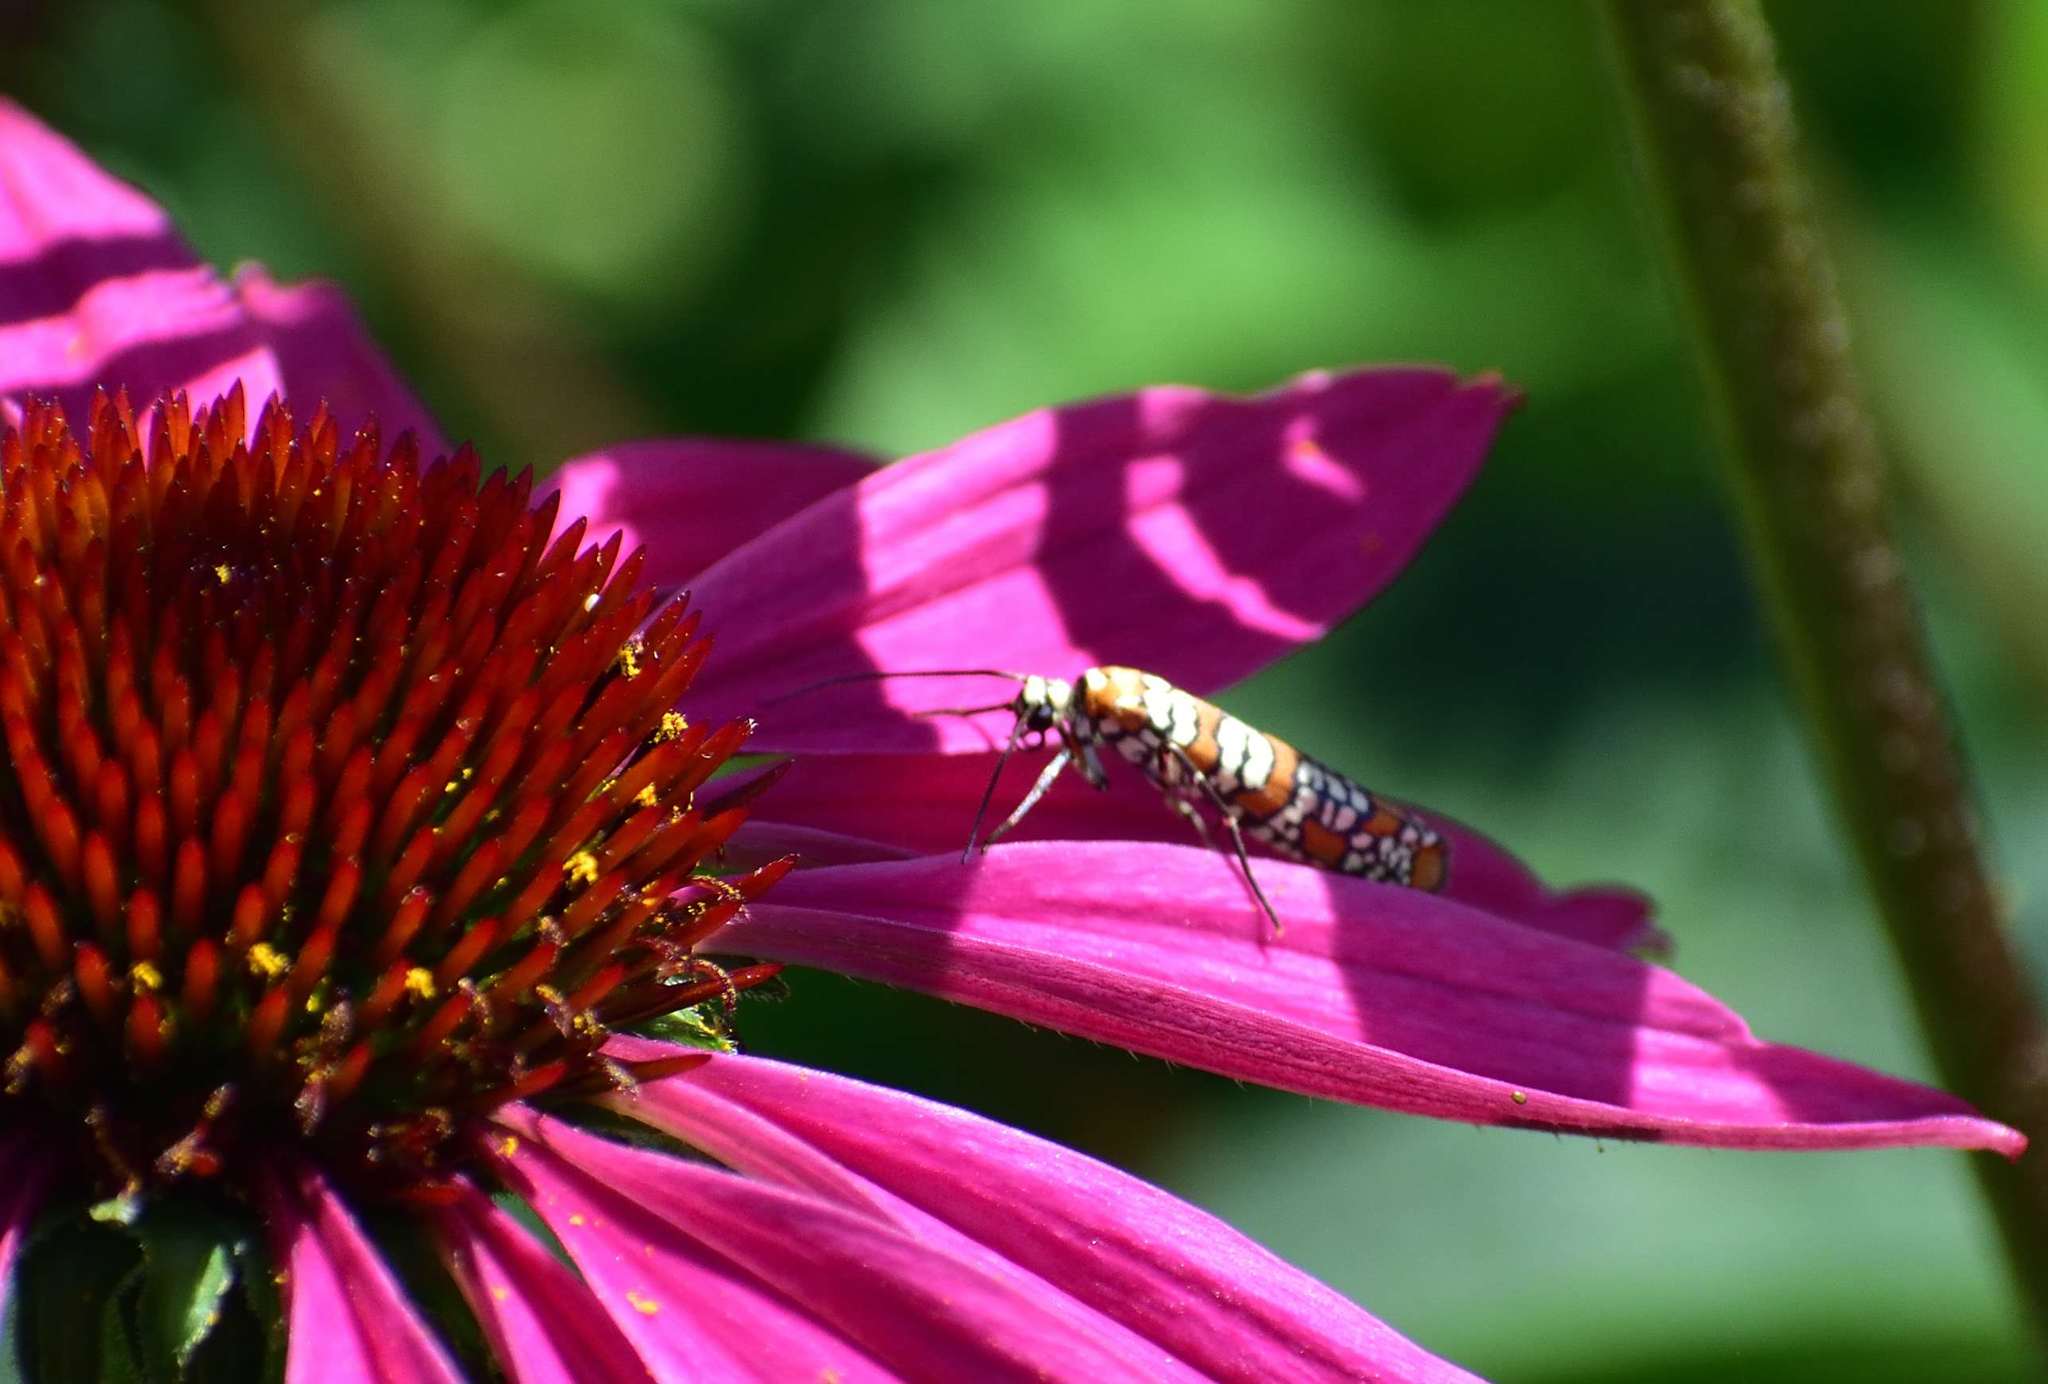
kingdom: Animalia
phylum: Arthropoda
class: Insecta
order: Lepidoptera
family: Attevidae
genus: Atteva
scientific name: Atteva punctella
